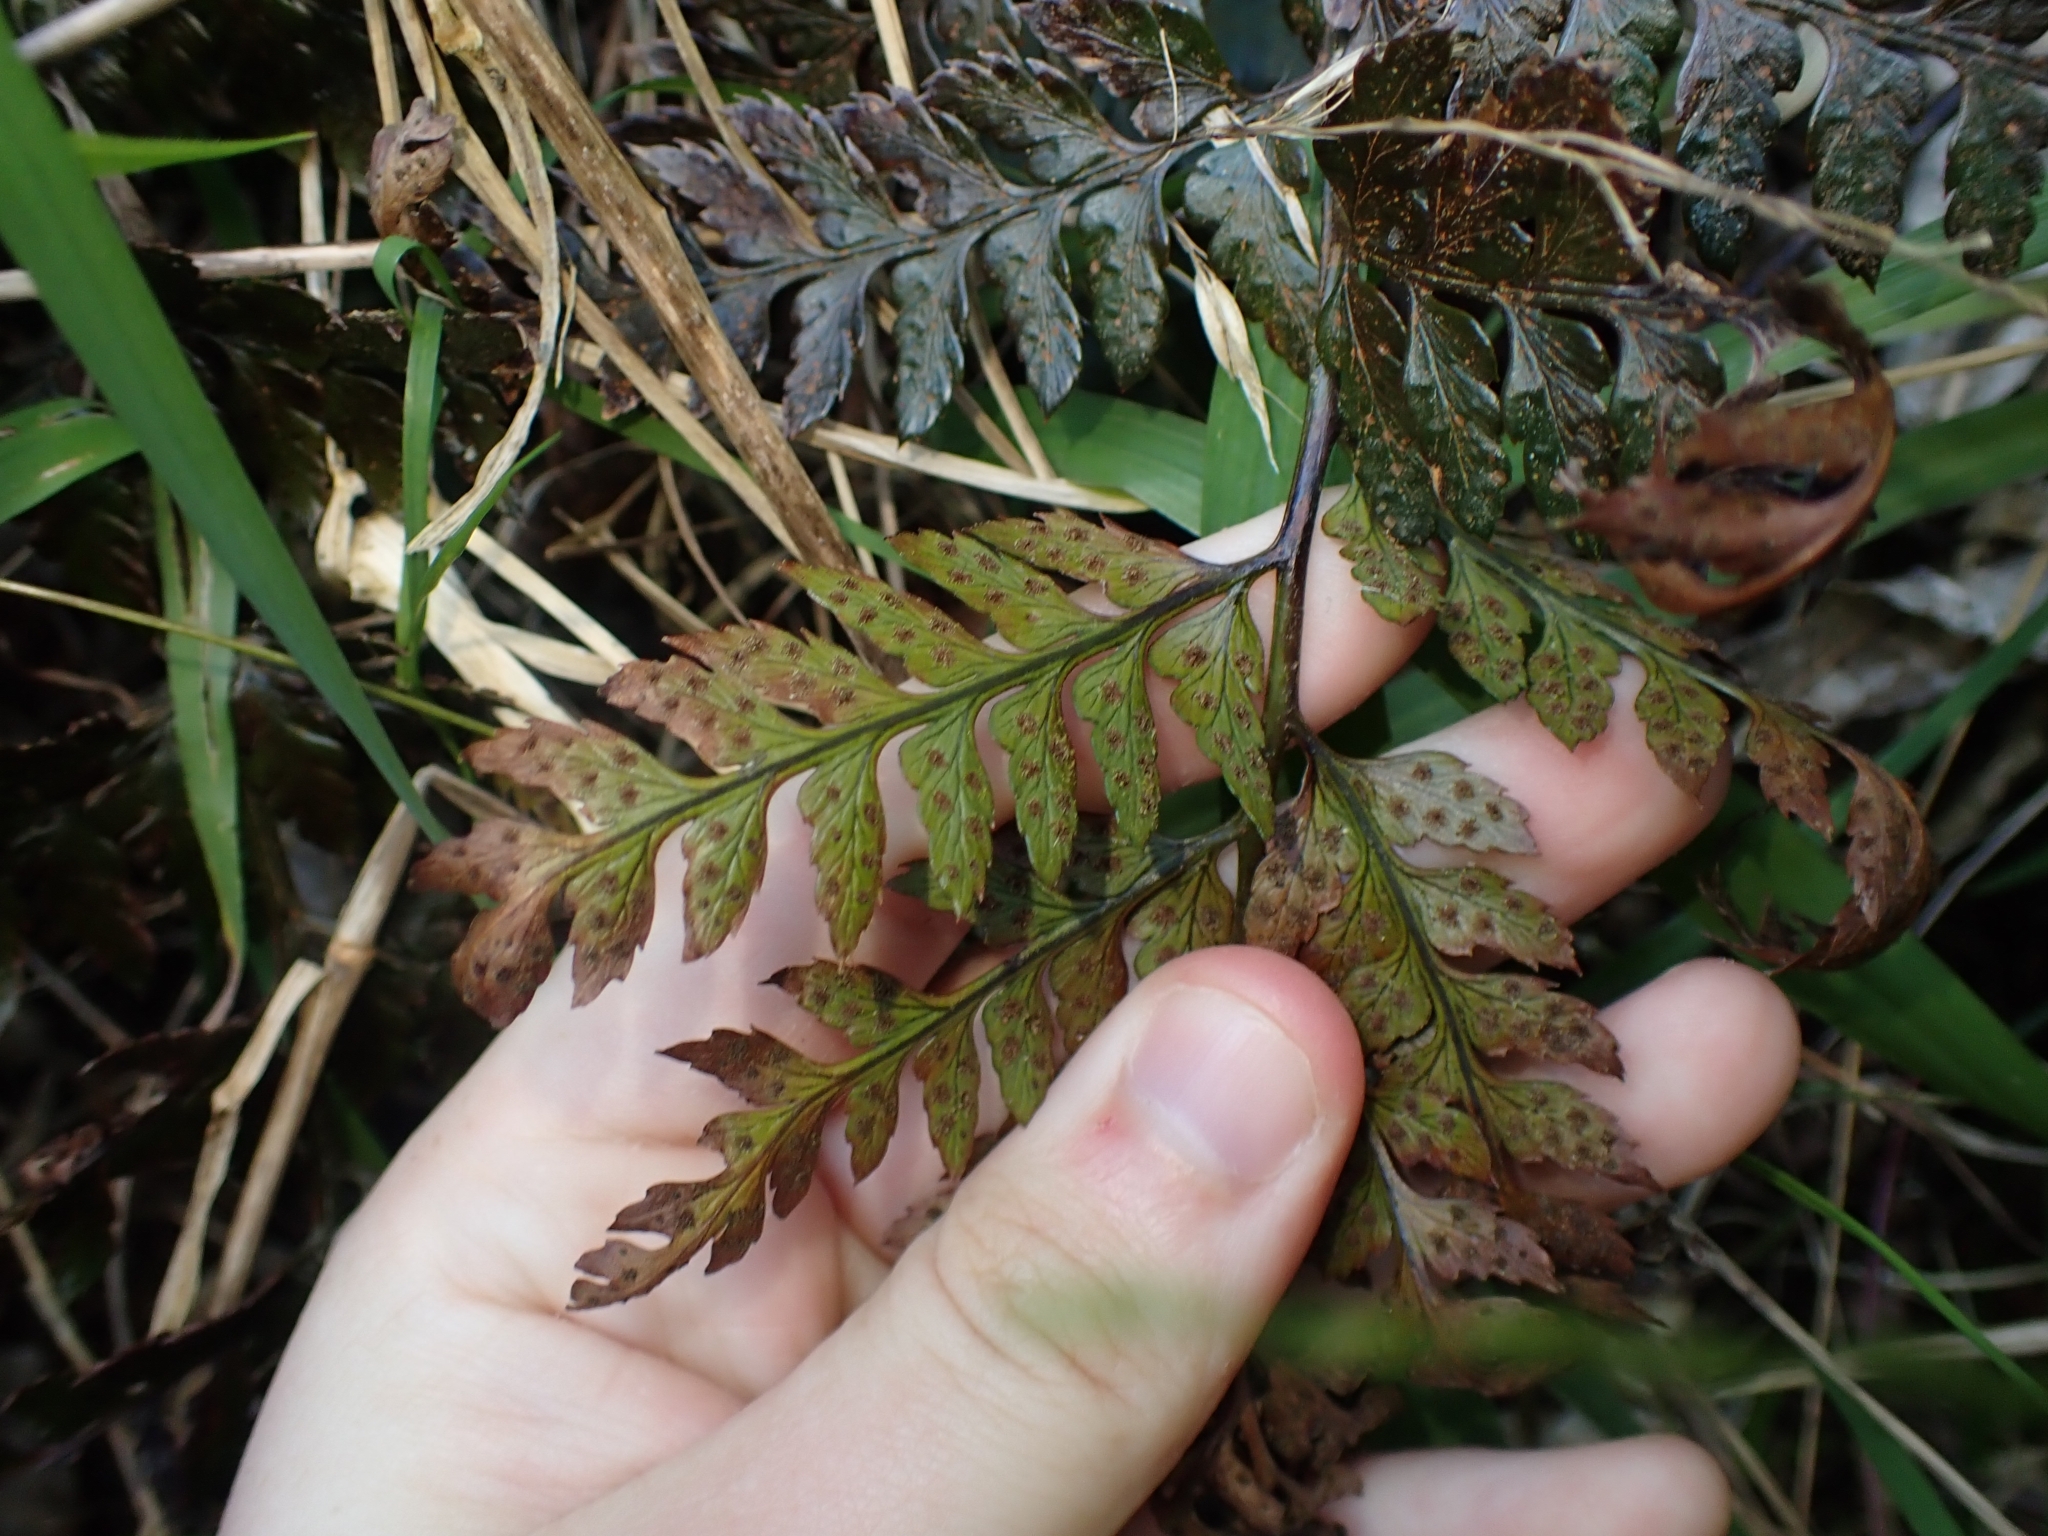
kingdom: Plantae
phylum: Tracheophyta
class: Polypodiopsida
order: Polypodiales
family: Dryopteridaceae
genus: Polystichum
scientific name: Polystichum oculatum
